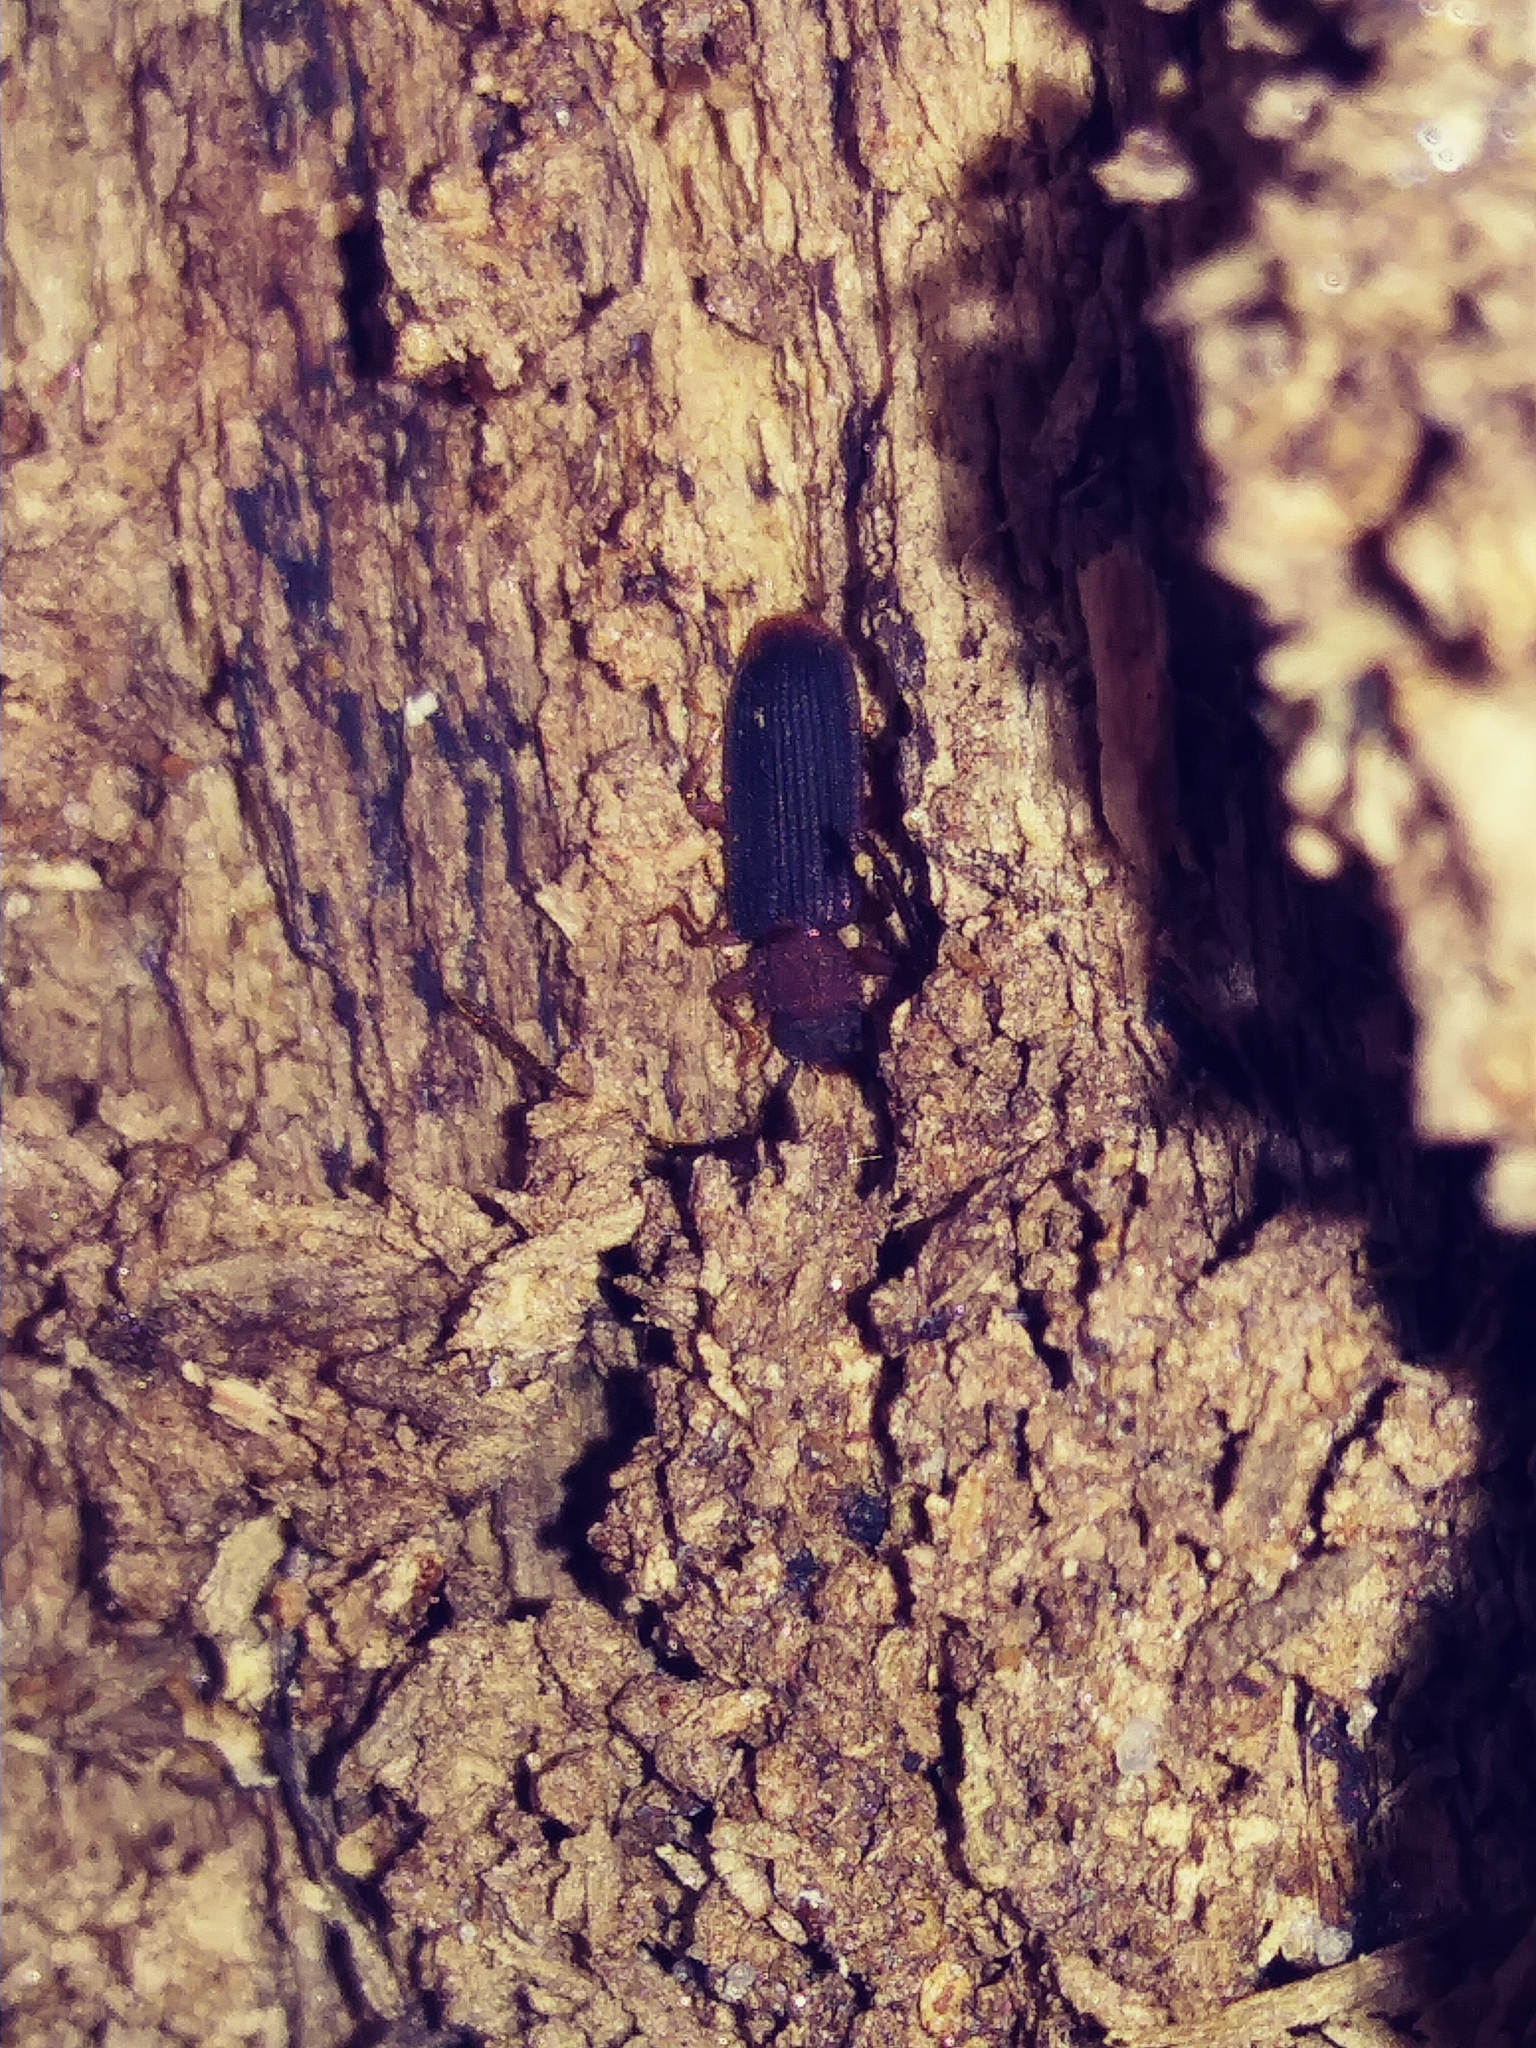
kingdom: Animalia
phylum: Arthropoda
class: Insecta
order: Coleoptera
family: Silvanidae
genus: Uleiota
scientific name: Uleiota dubia
